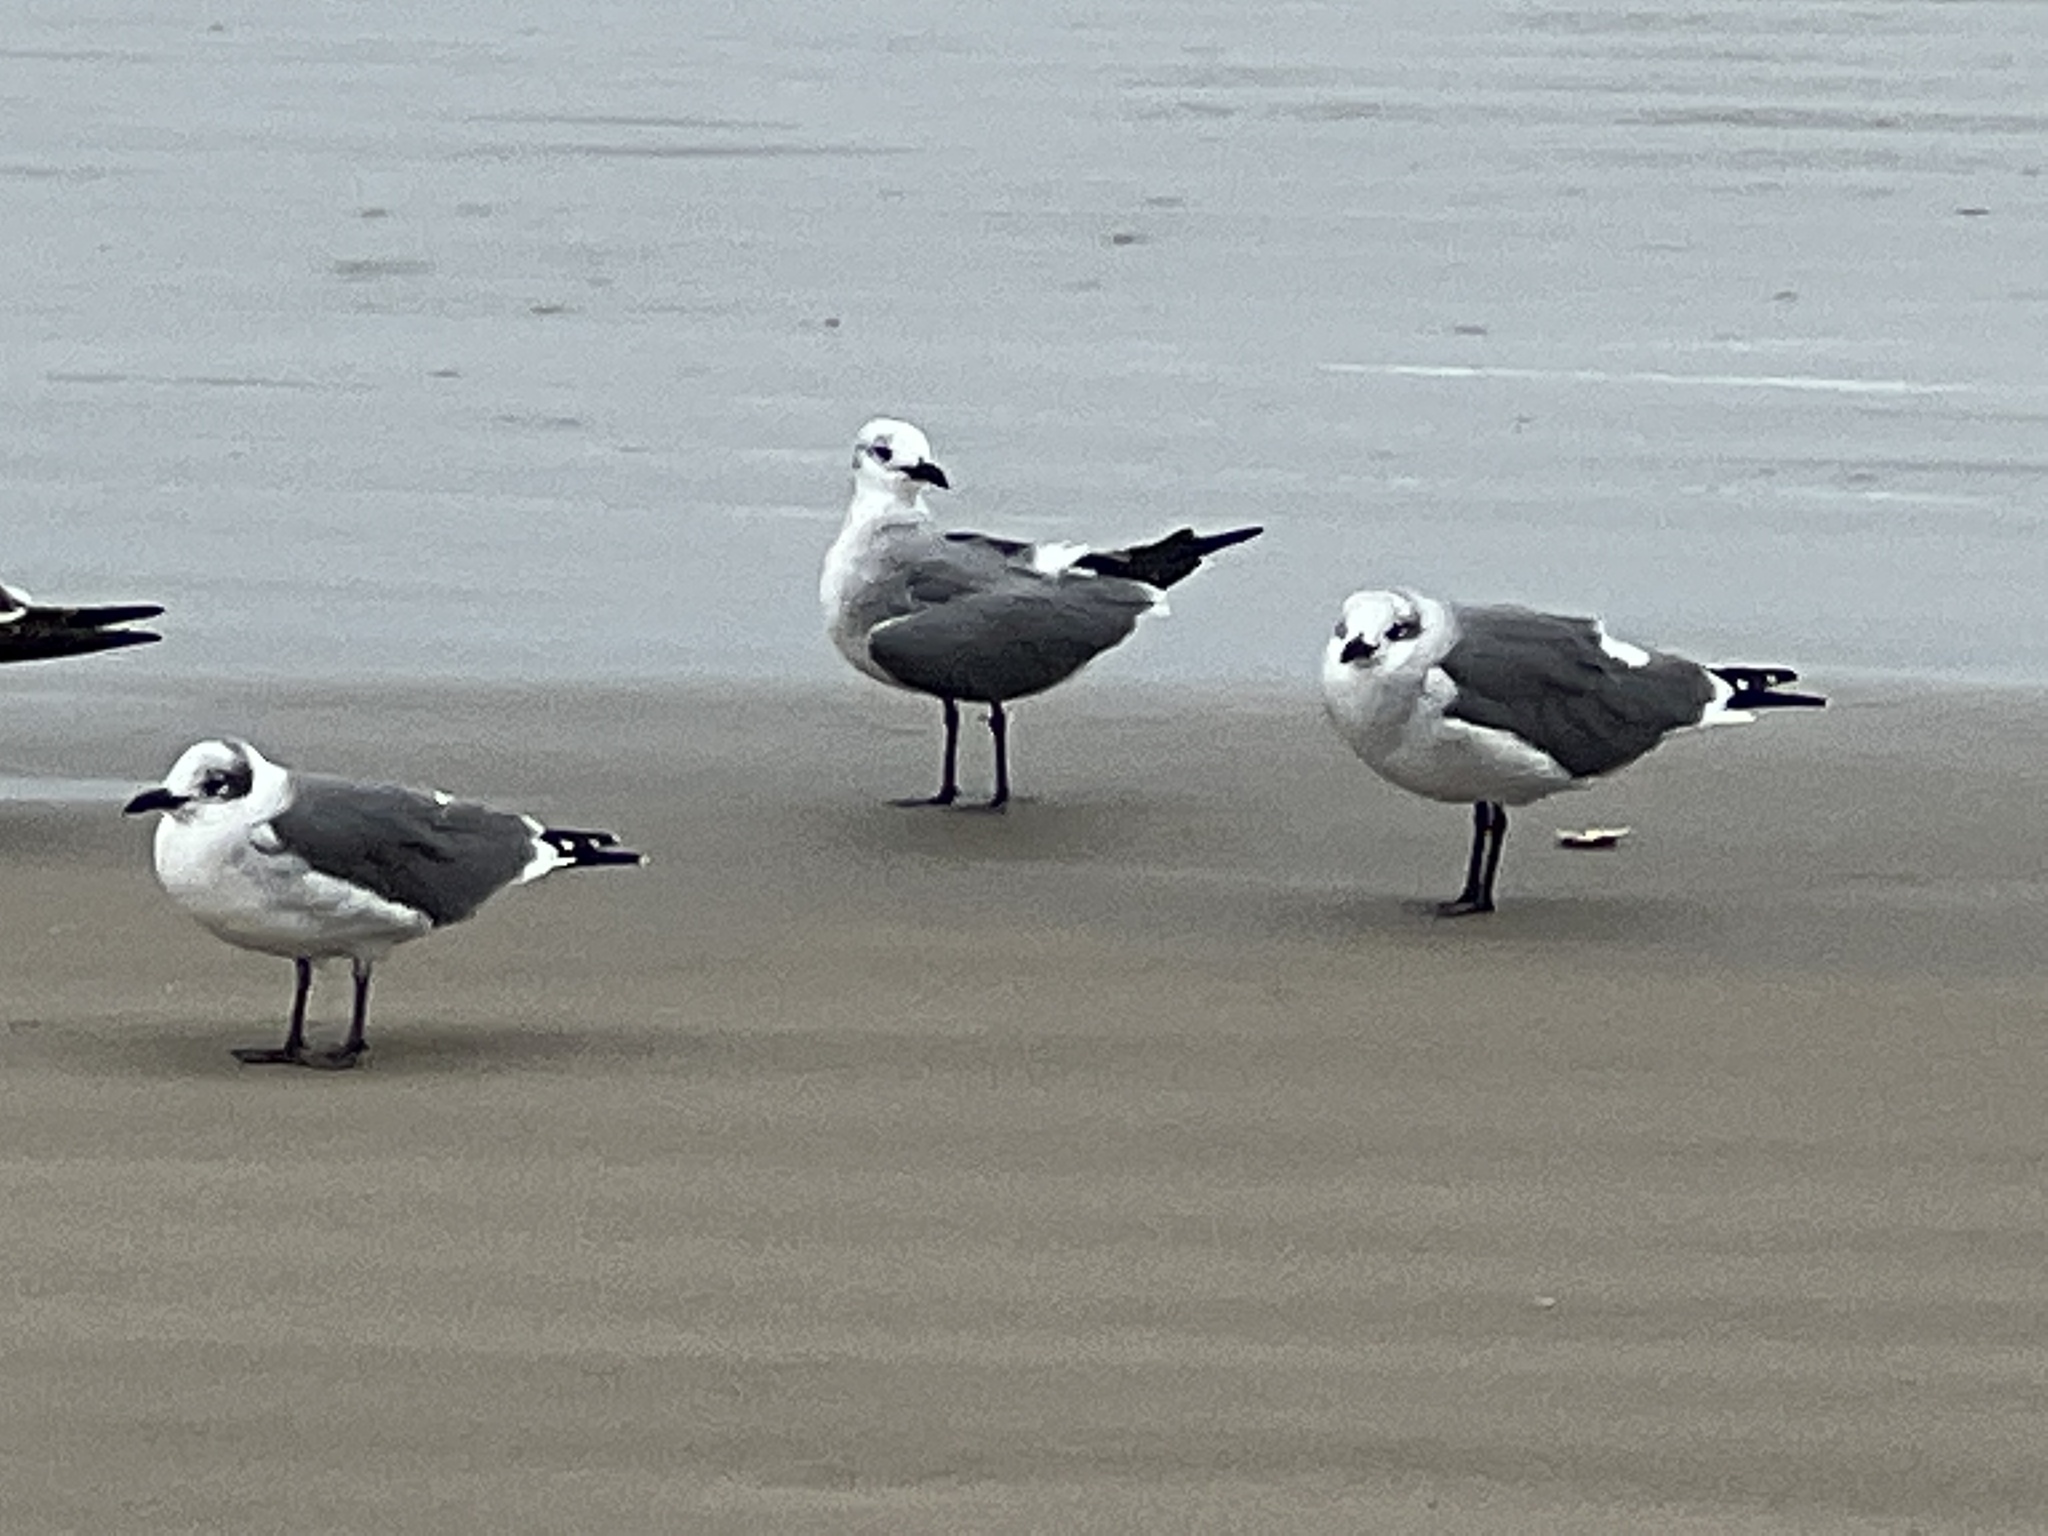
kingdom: Animalia
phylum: Chordata
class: Aves
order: Charadriiformes
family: Laridae
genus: Leucophaeus
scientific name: Leucophaeus atricilla
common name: Laughing gull
